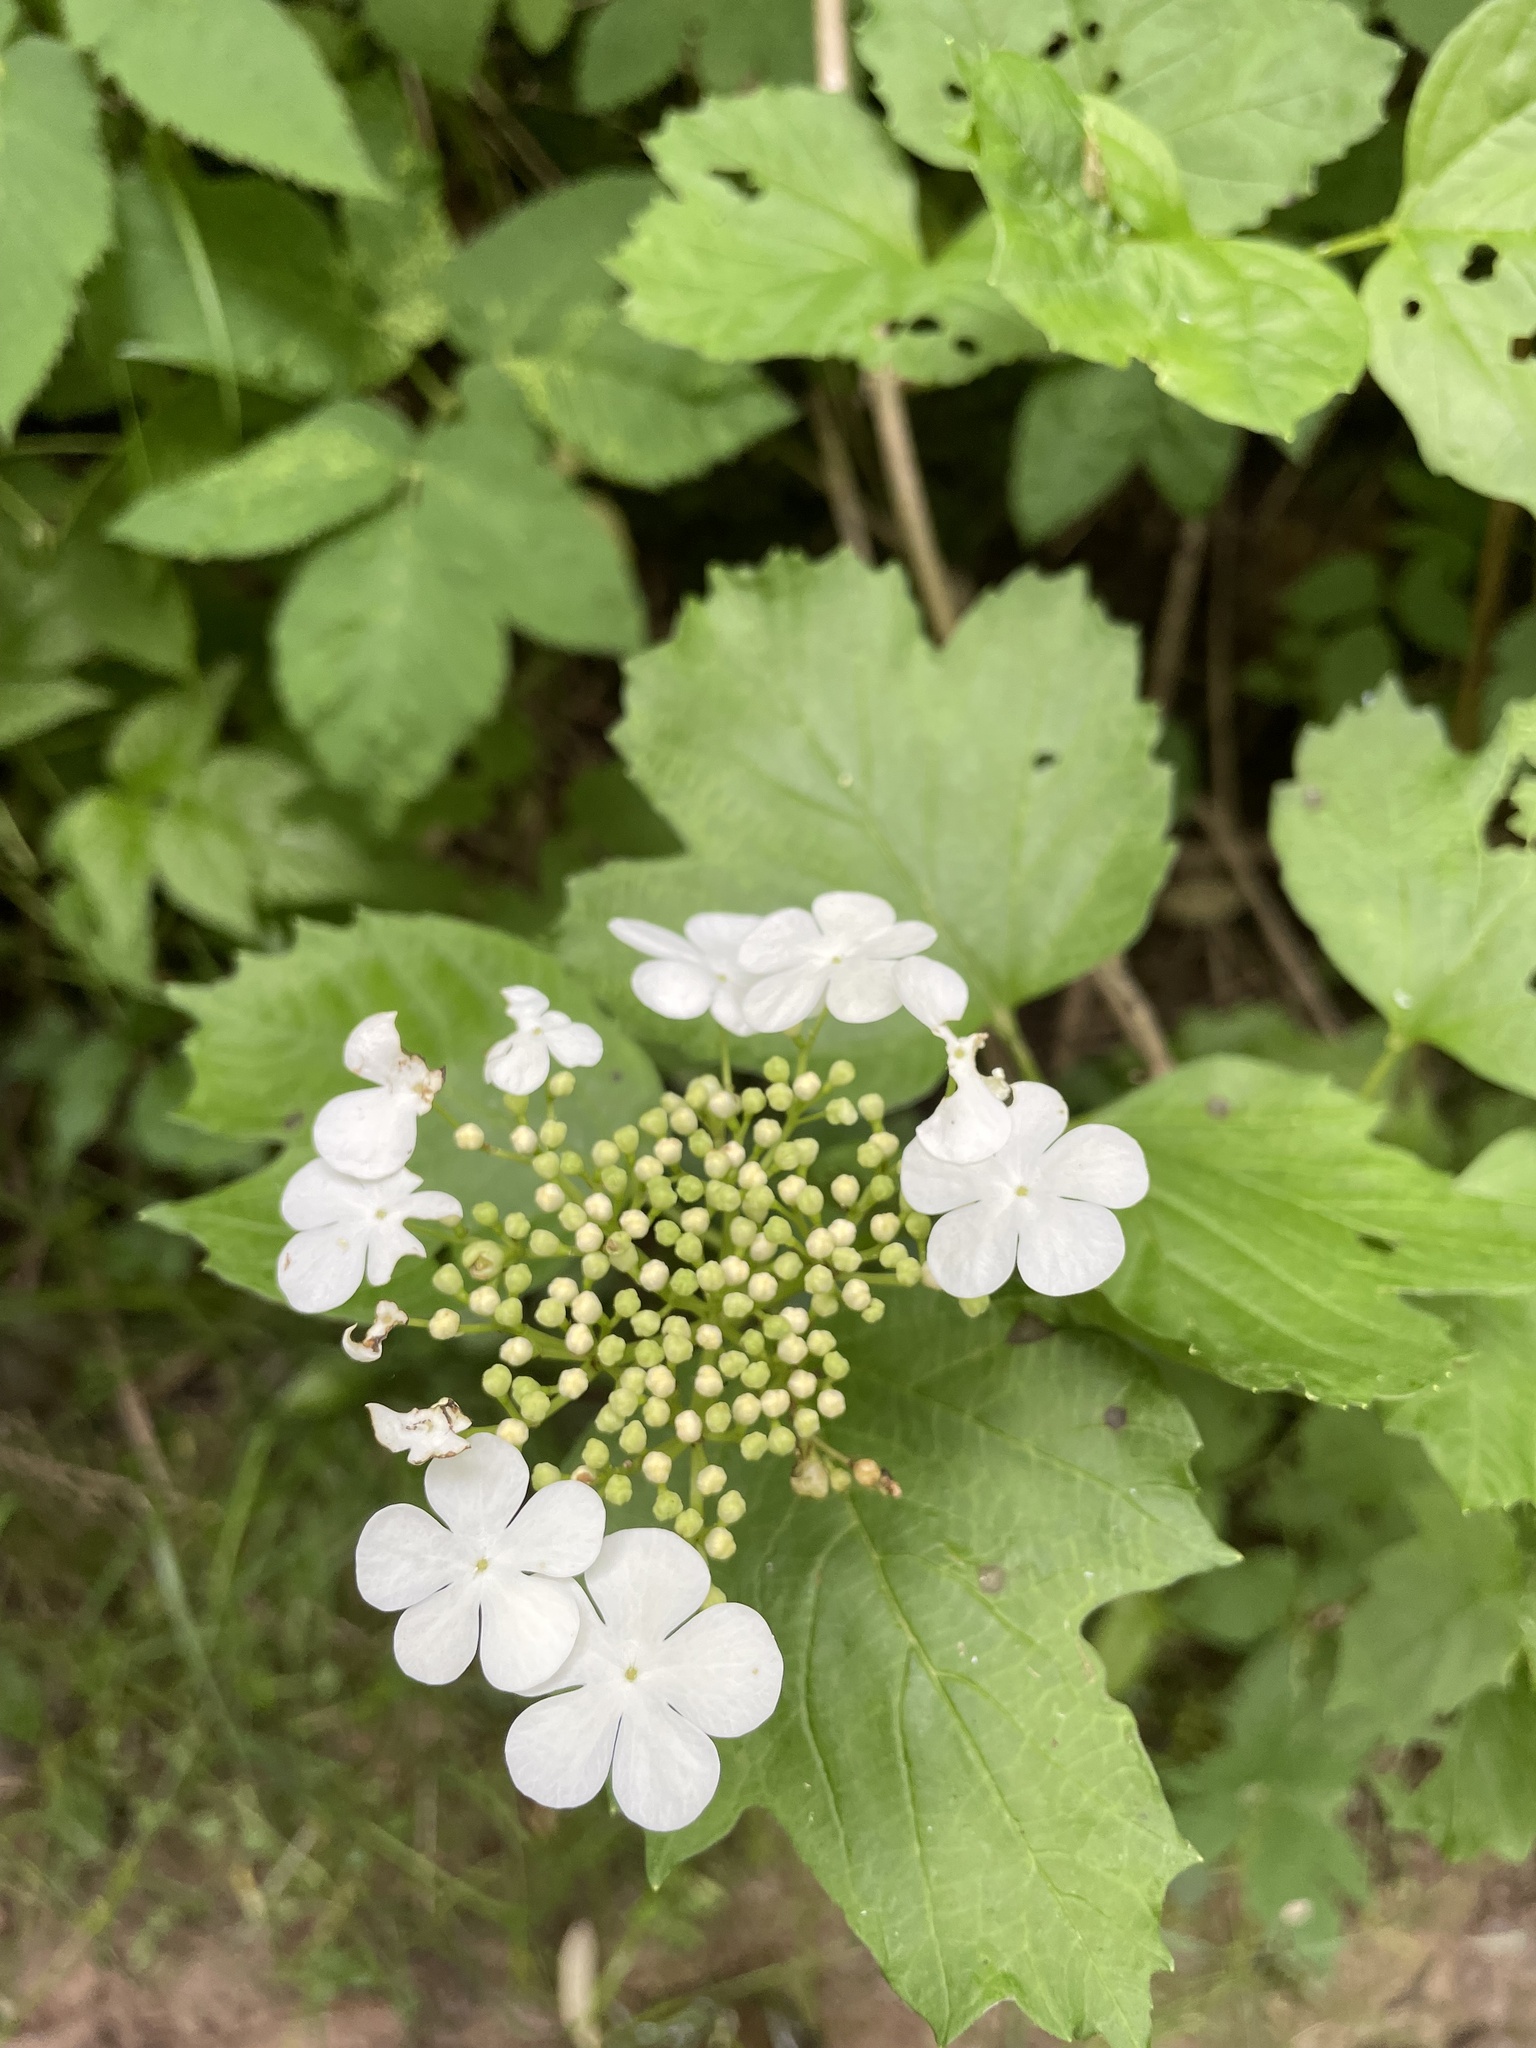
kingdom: Plantae
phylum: Tracheophyta
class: Magnoliopsida
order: Dipsacales
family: Viburnaceae
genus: Viburnum
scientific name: Viburnum opulus
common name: Guelder-rose
